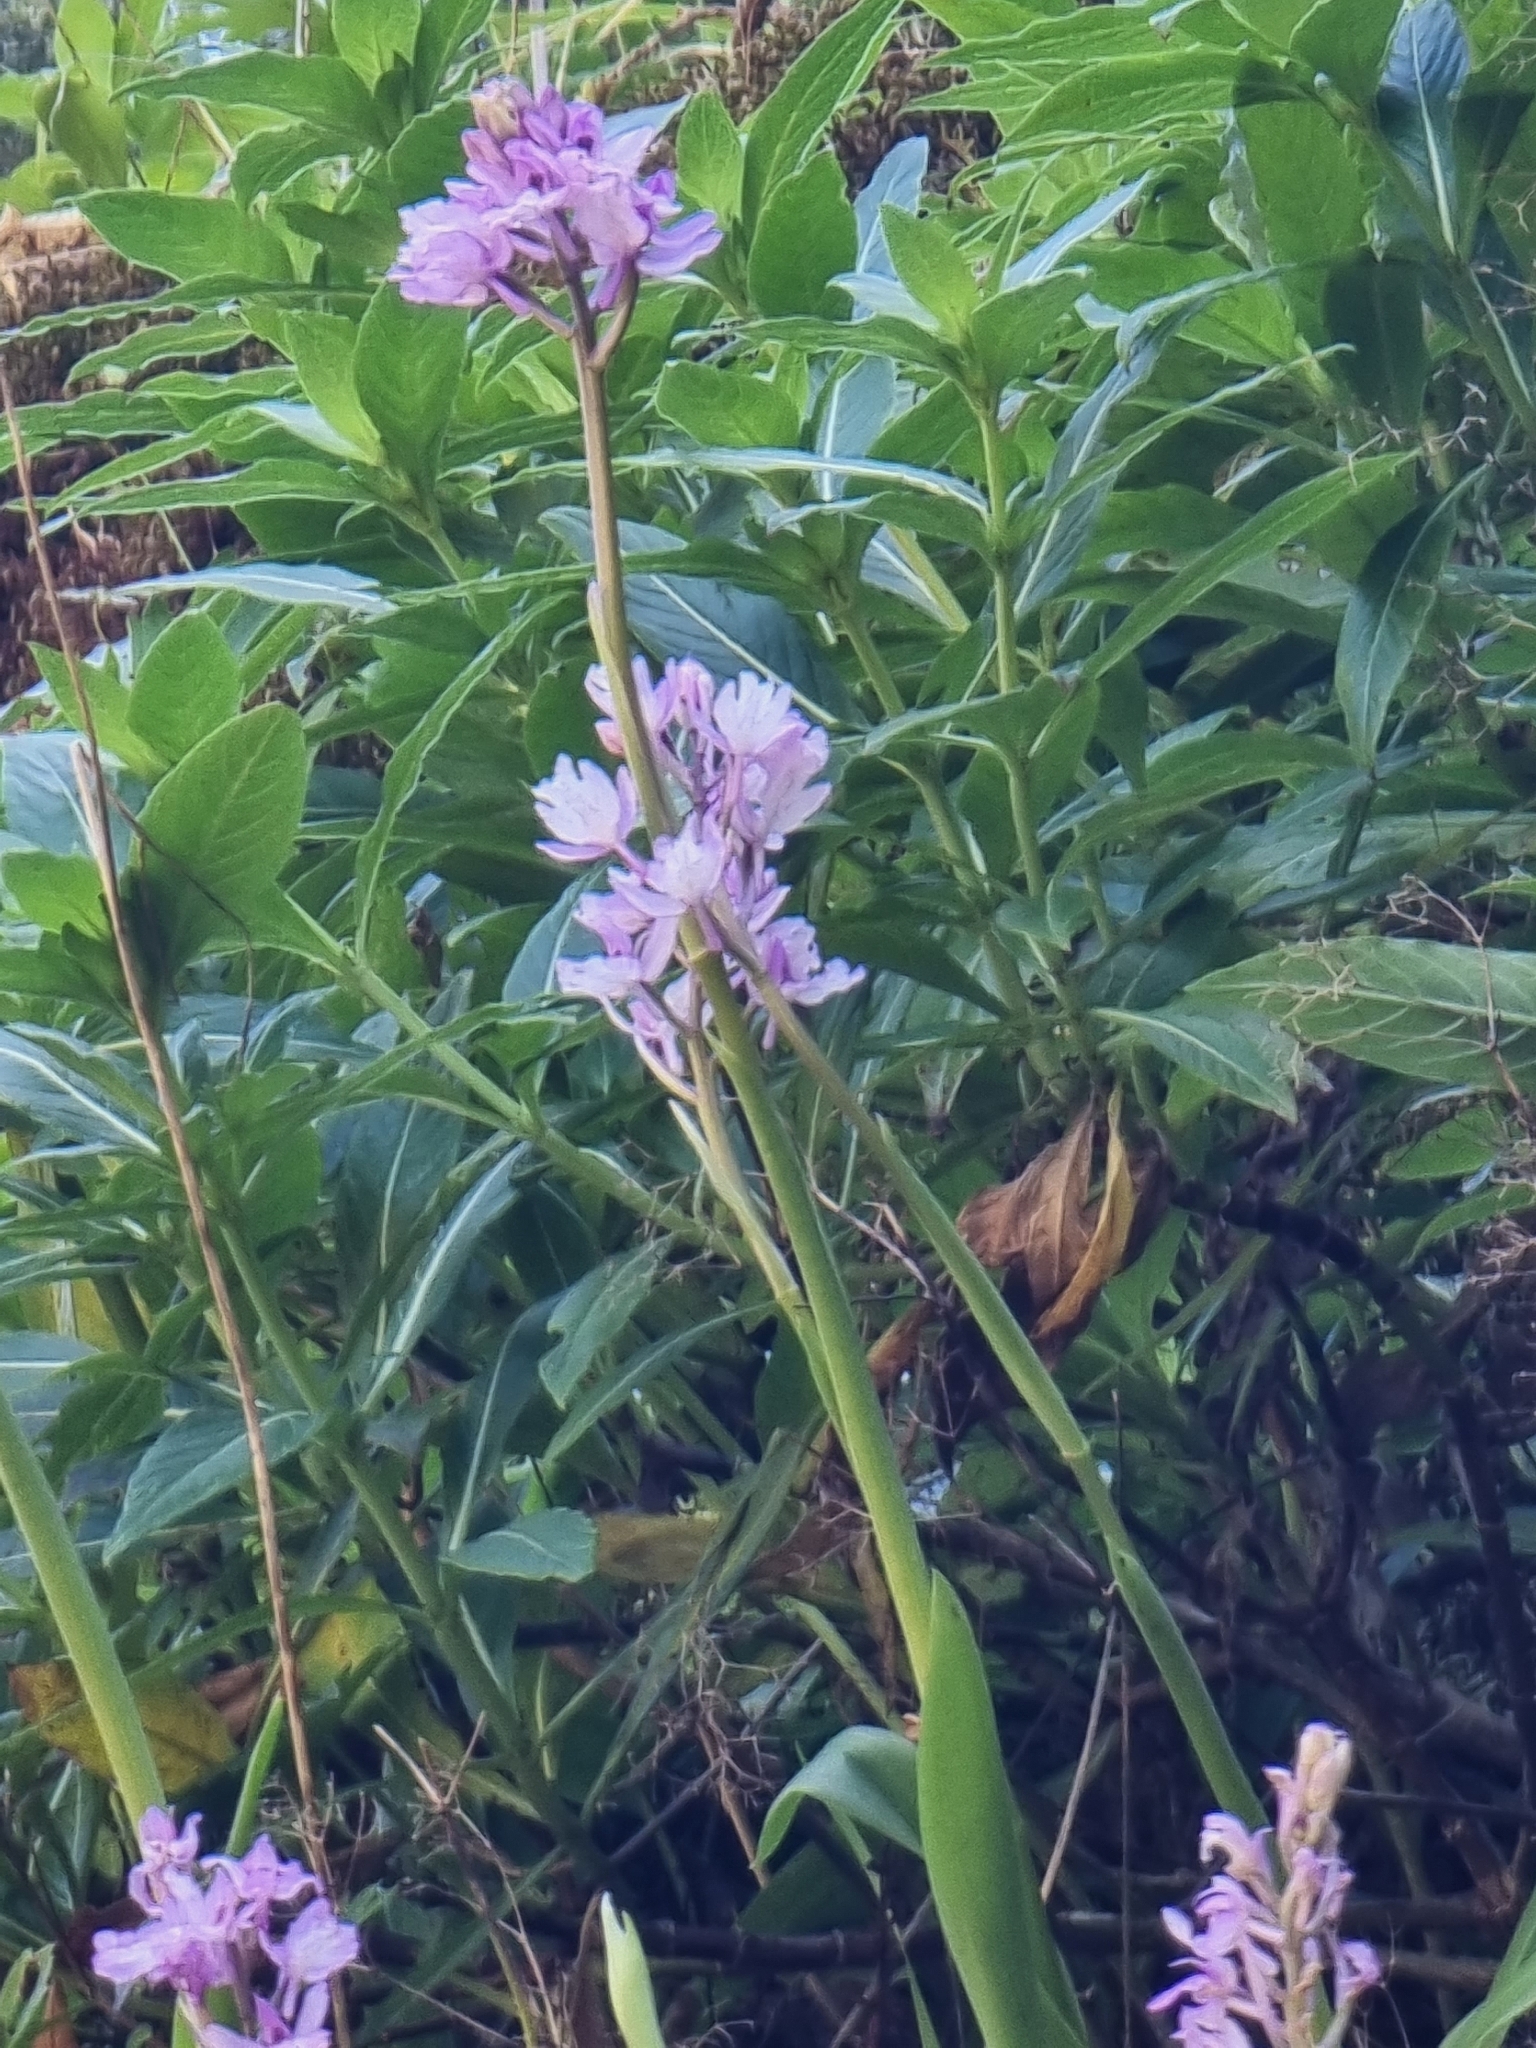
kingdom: Plantae
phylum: Tracheophyta
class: Liliopsida
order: Asparagales
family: Orchidaceae
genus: Orchis
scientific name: Orchis mascula
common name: Early-purple orchid
